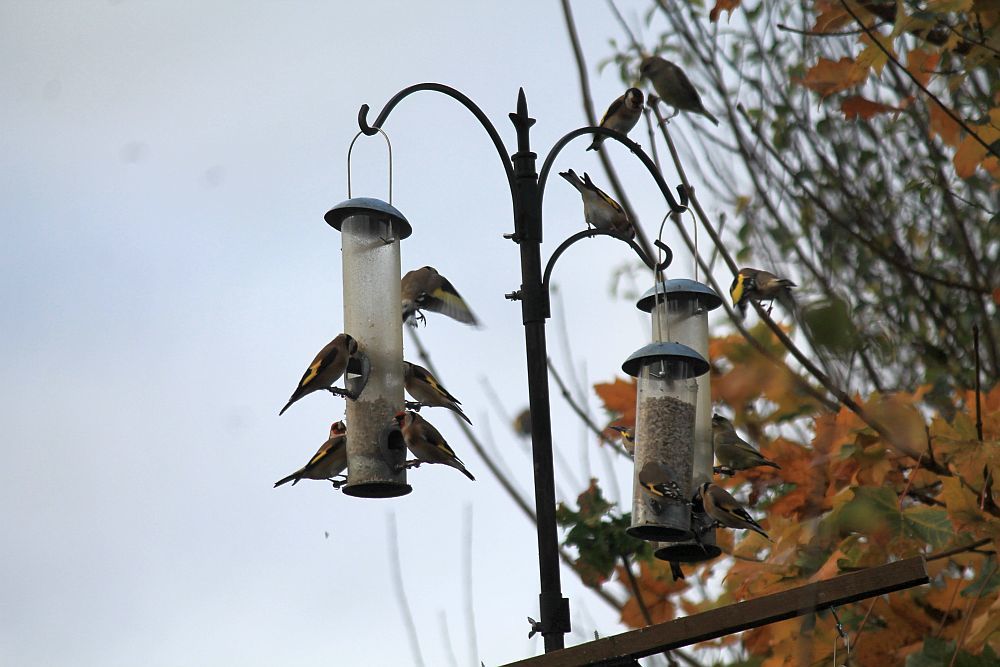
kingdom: Animalia
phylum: Chordata
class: Aves
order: Passeriformes
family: Fringillidae
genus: Carduelis
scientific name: Carduelis carduelis
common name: European goldfinch
